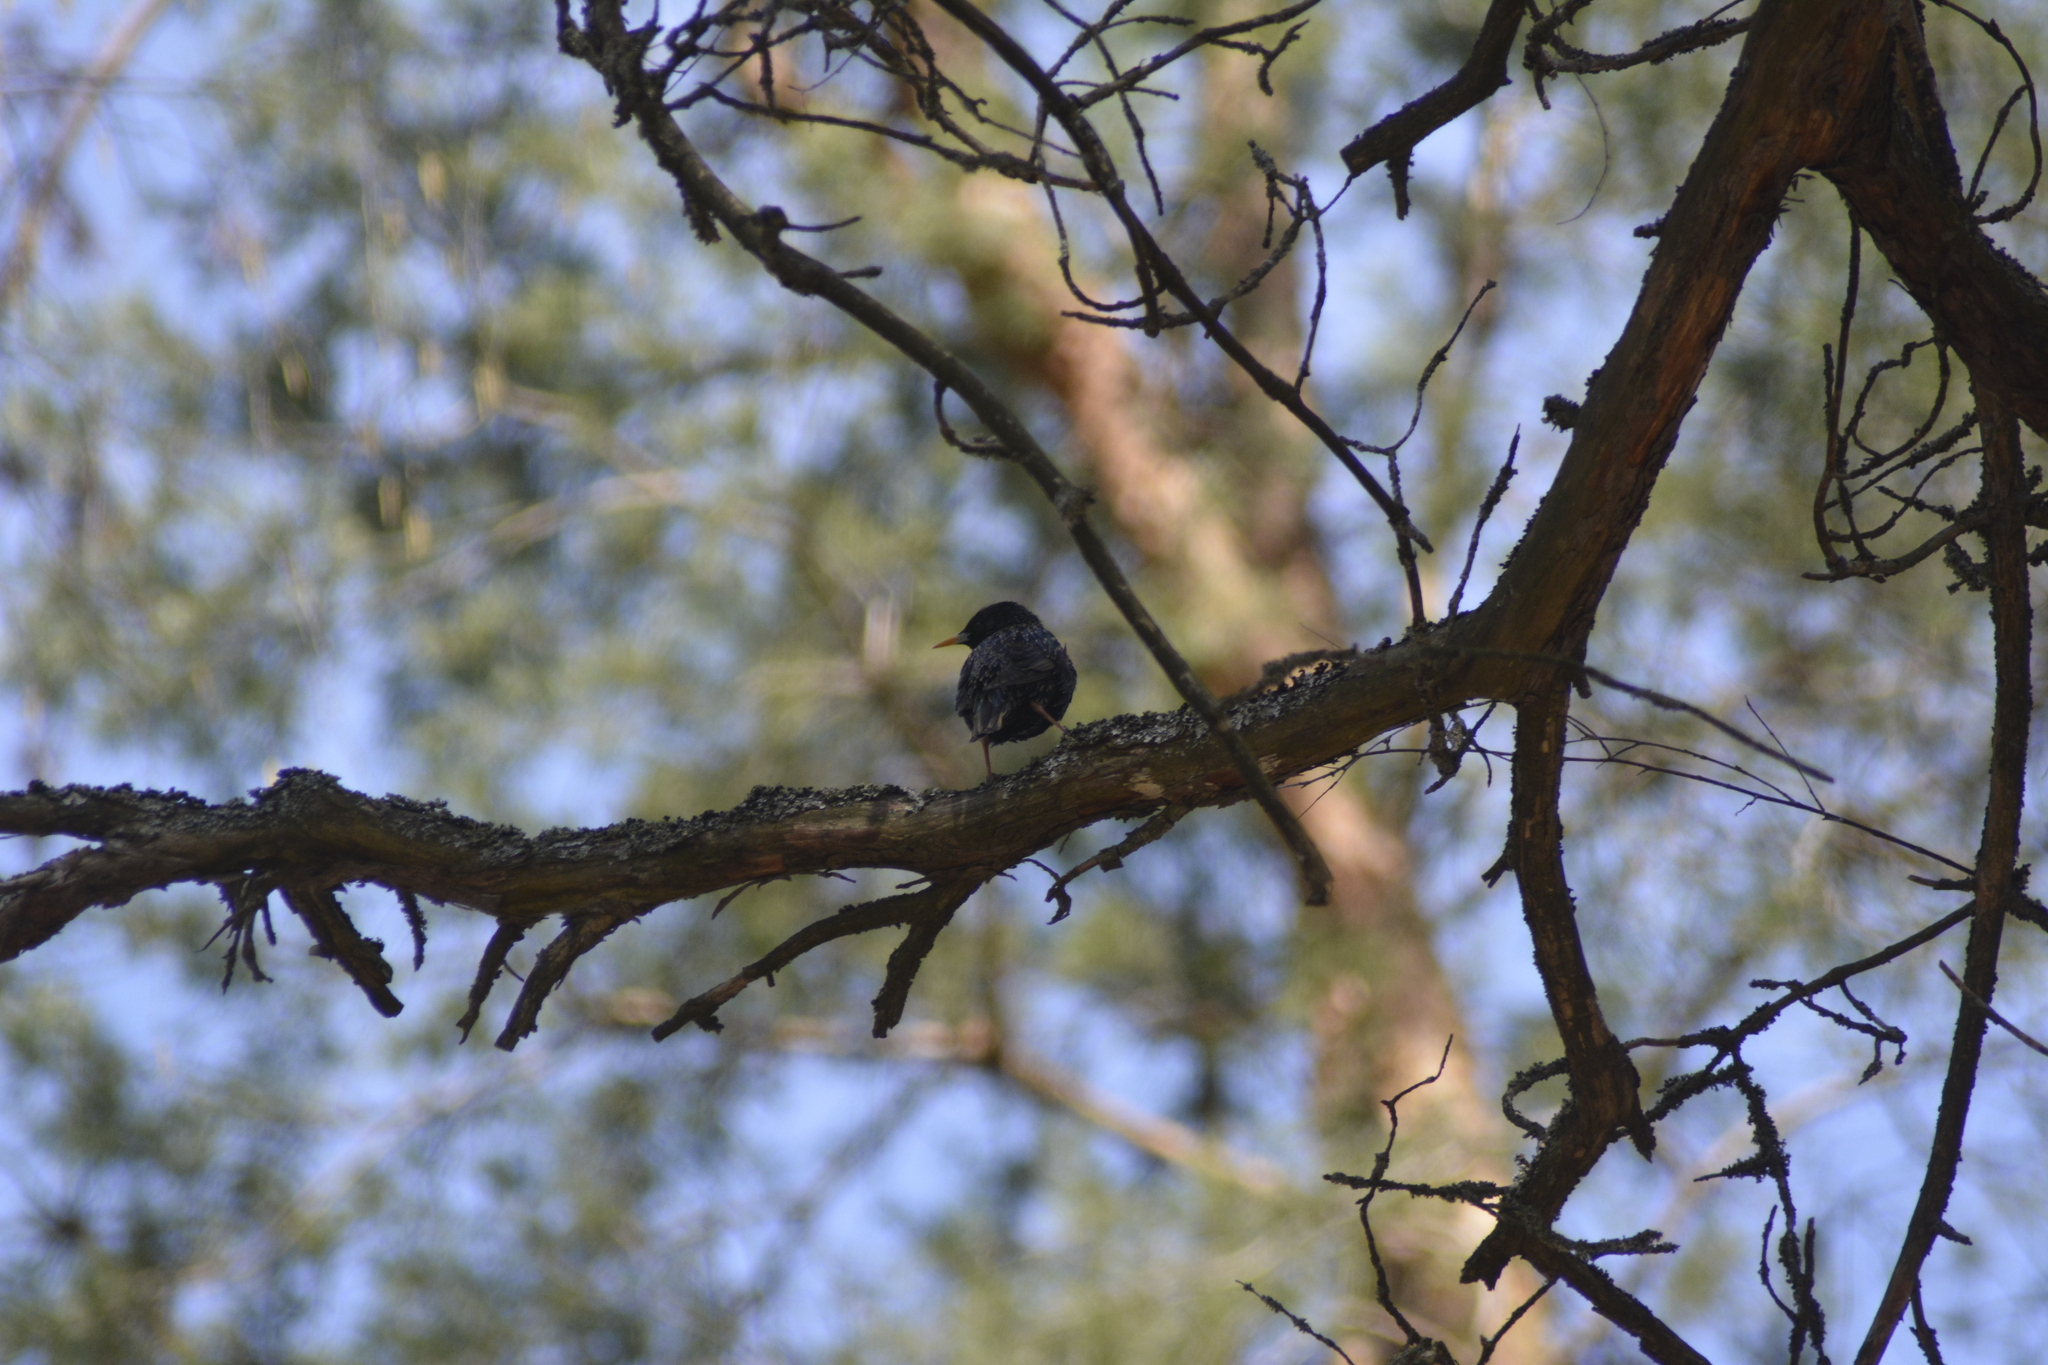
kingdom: Animalia
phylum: Chordata
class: Aves
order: Passeriformes
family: Sturnidae
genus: Sturnus
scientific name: Sturnus vulgaris
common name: Common starling
